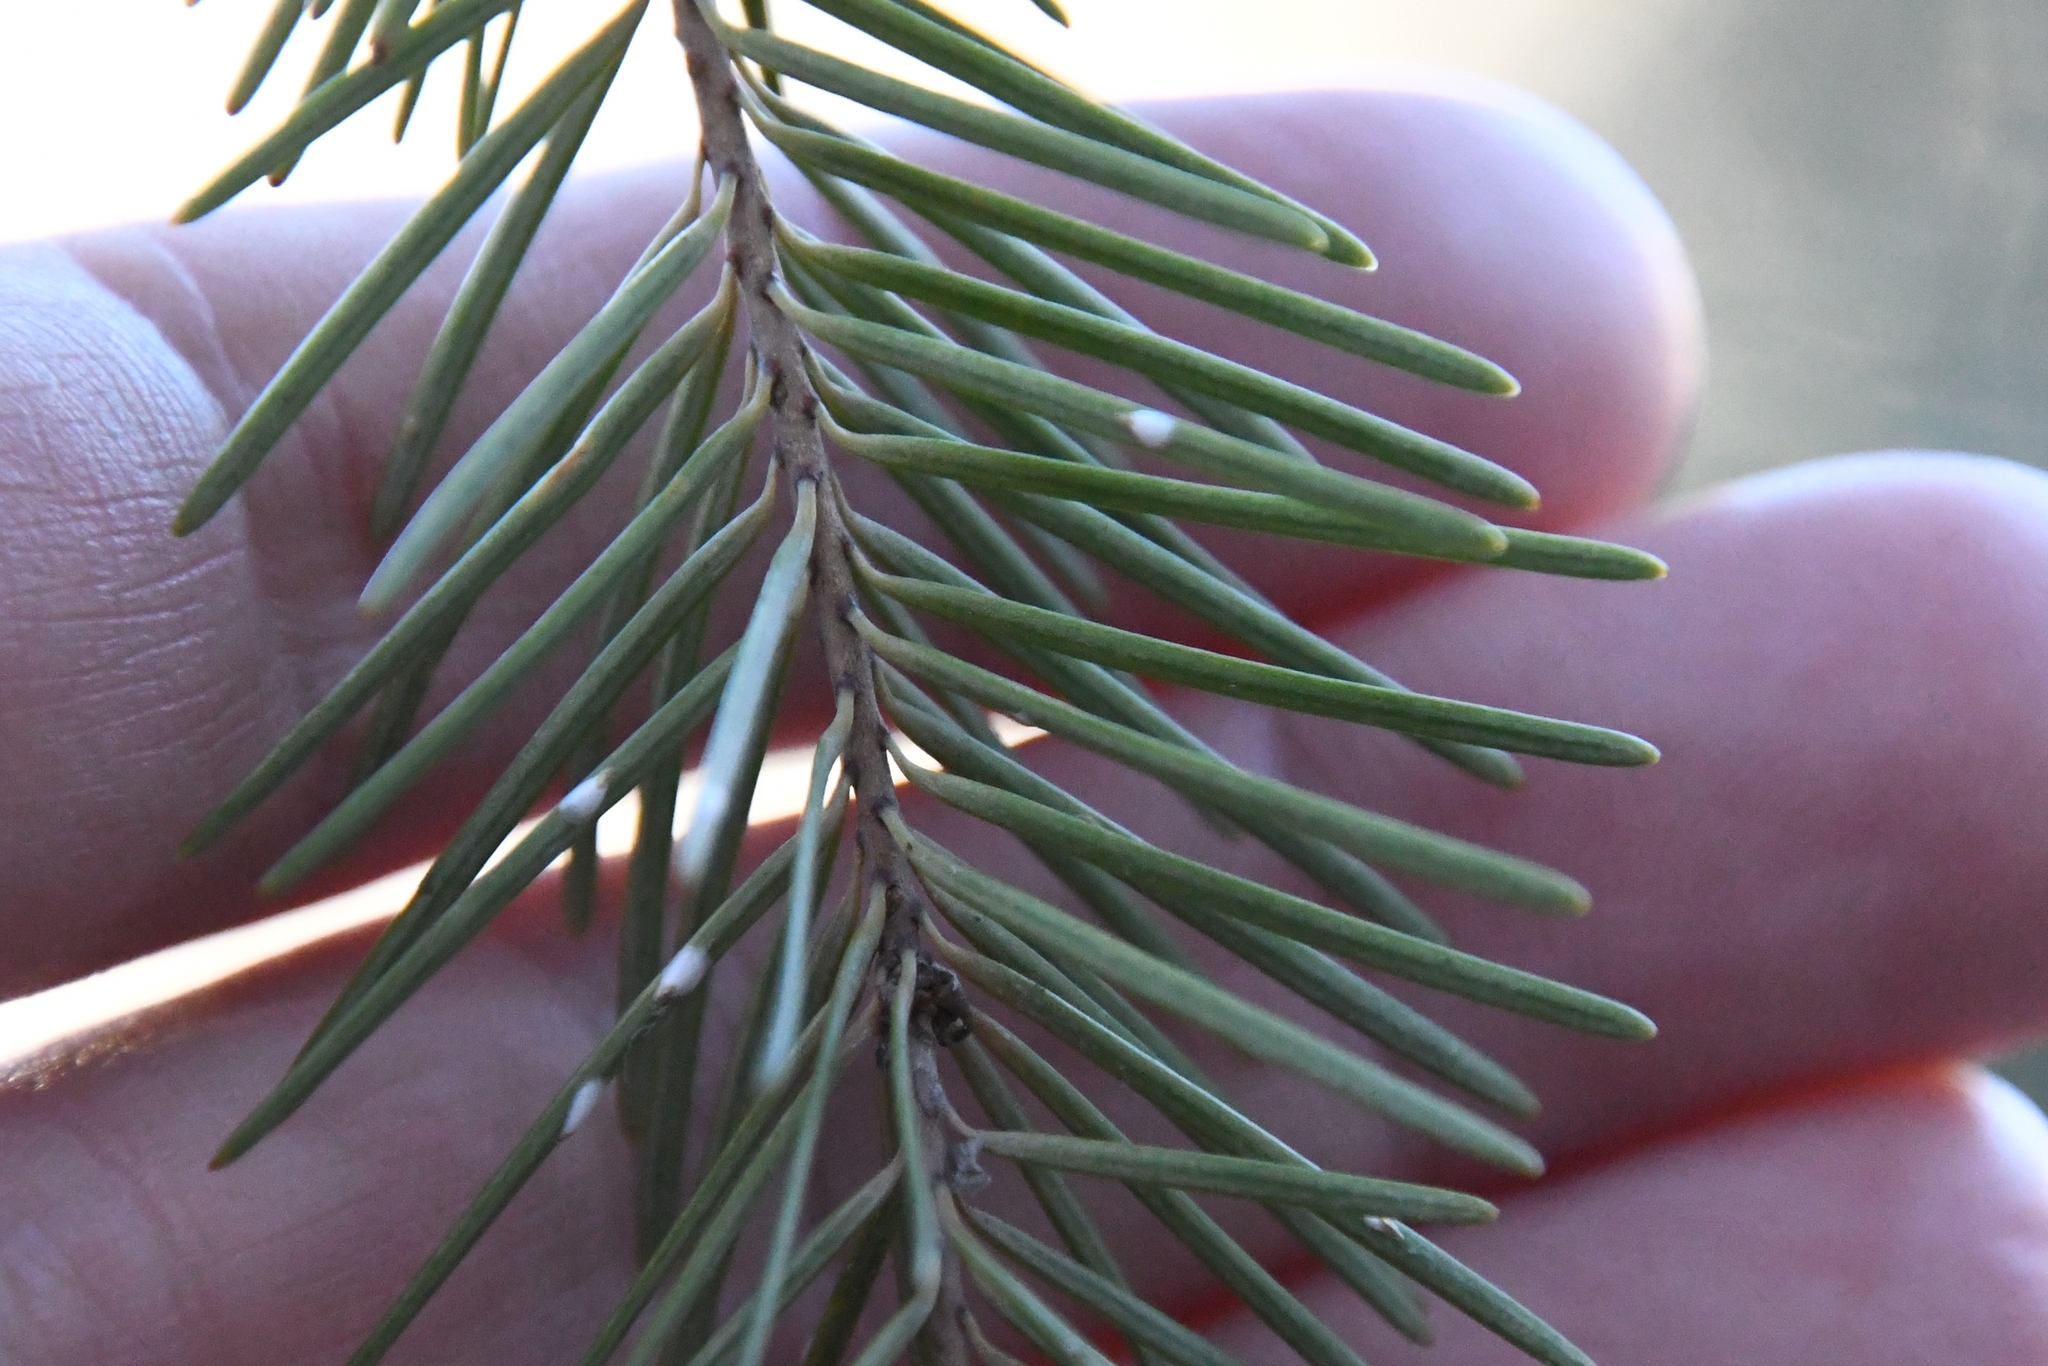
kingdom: Plantae
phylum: Tracheophyta
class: Pinopsida
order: Pinales
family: Pinaceae
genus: Pseudotsuga
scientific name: Pseudotsuga menziesii
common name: Douglas fir
